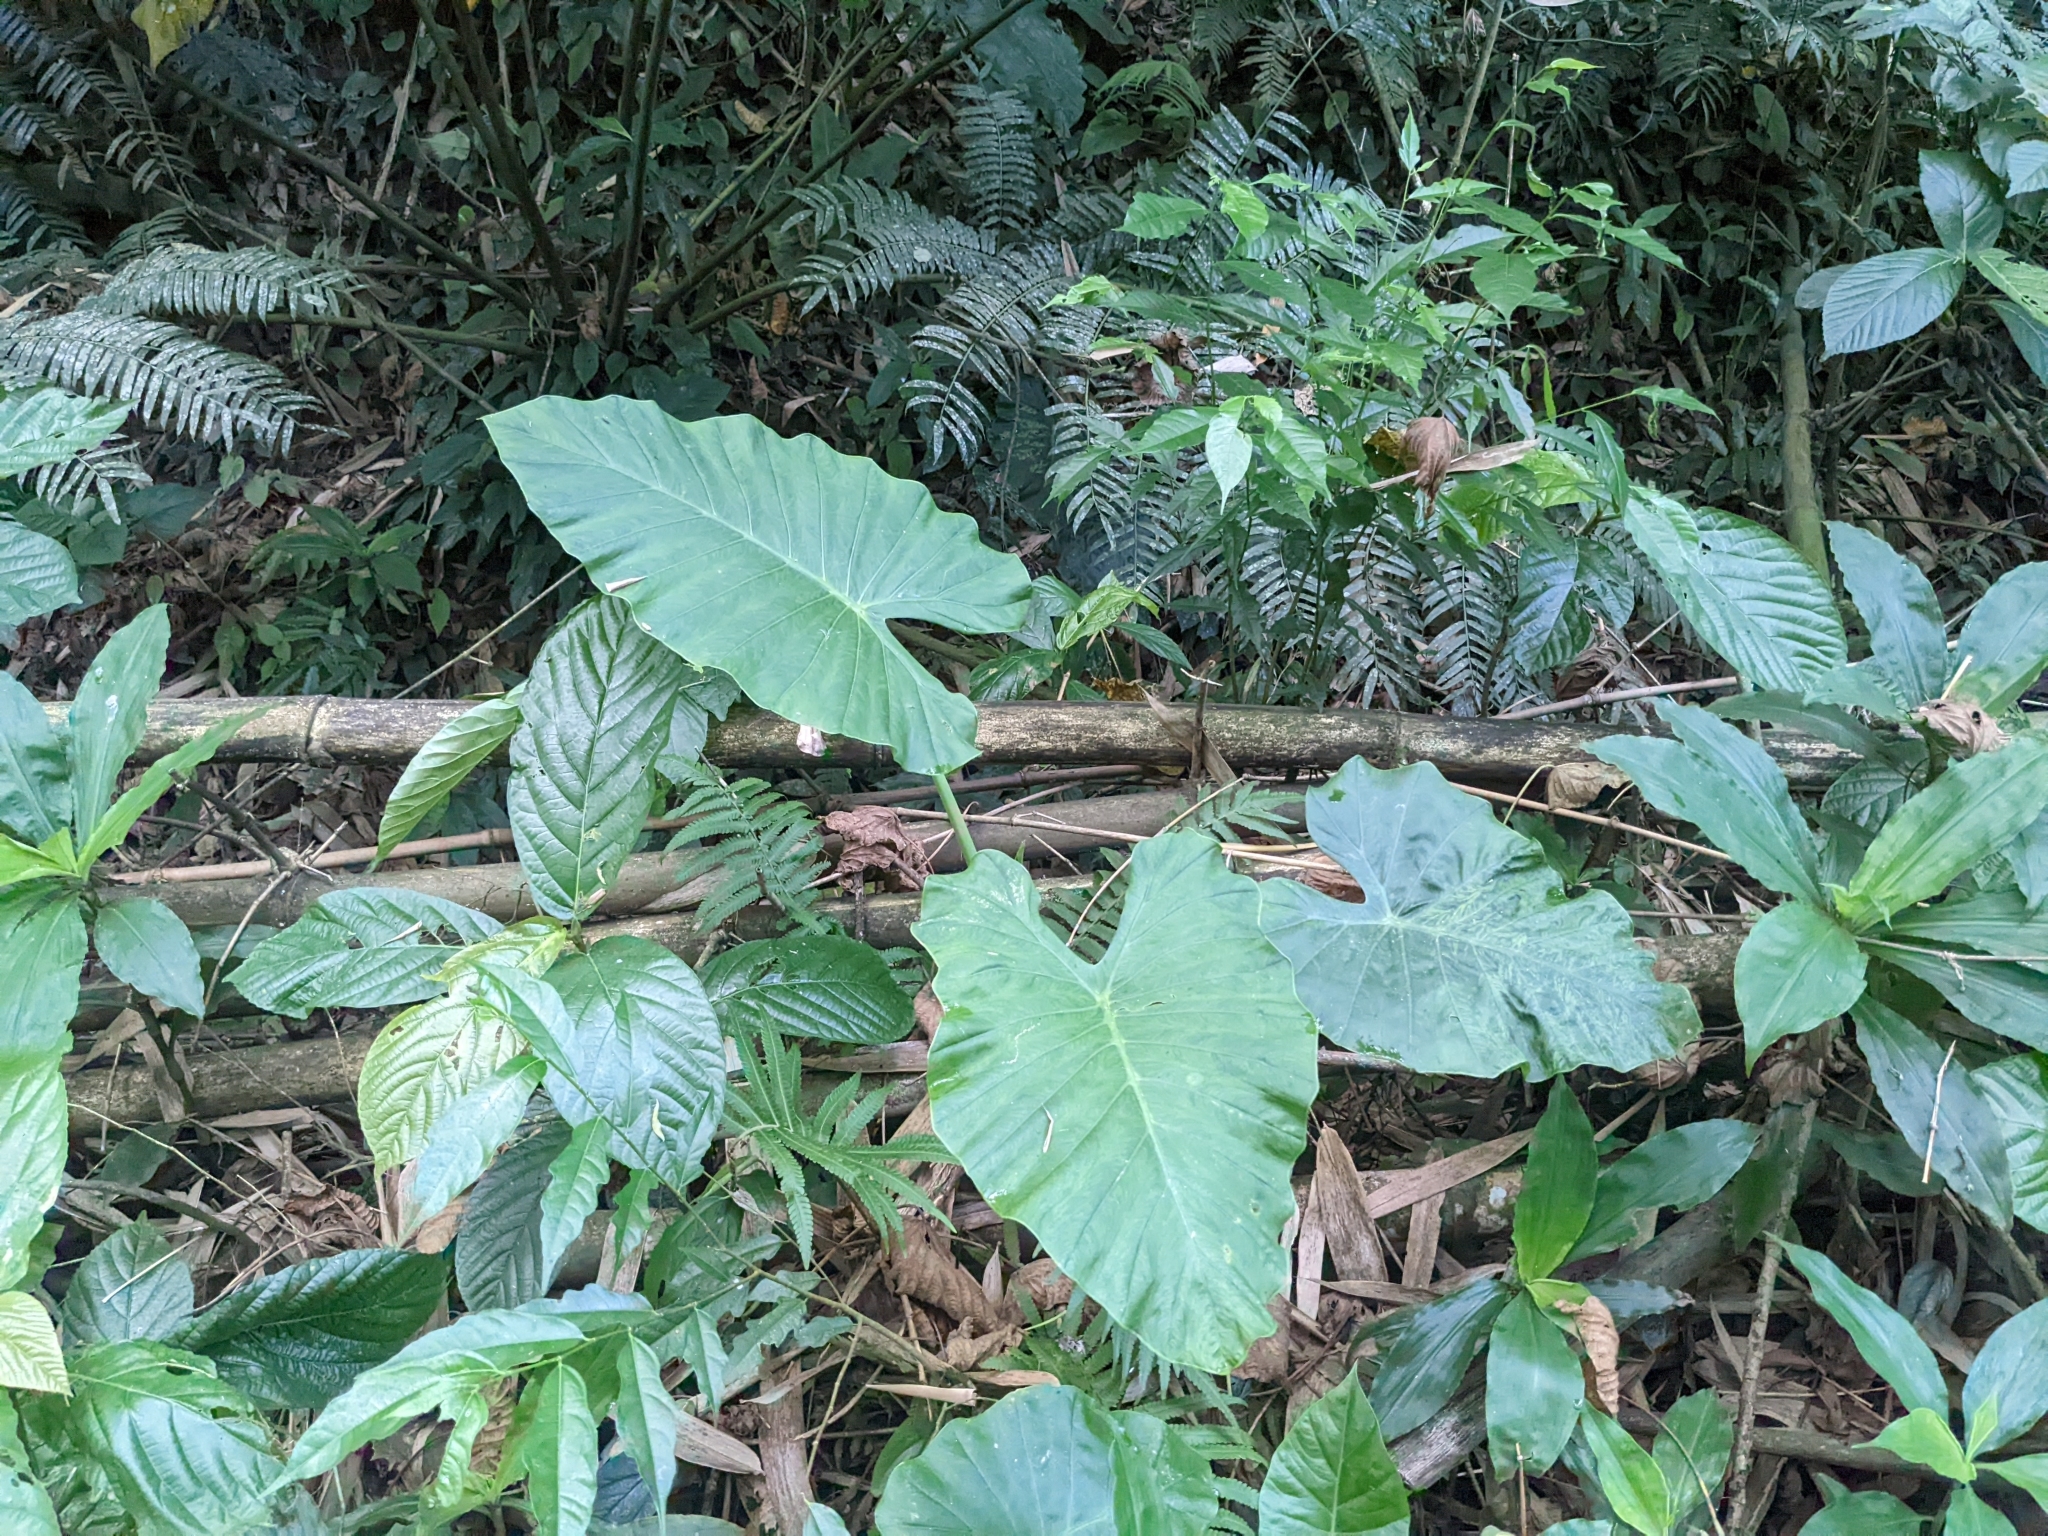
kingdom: Plantae
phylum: Tracheophyta
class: Liliopsida
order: Alismatales
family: Araceae
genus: Alocasia
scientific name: Alocasia odora
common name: Asian taro
